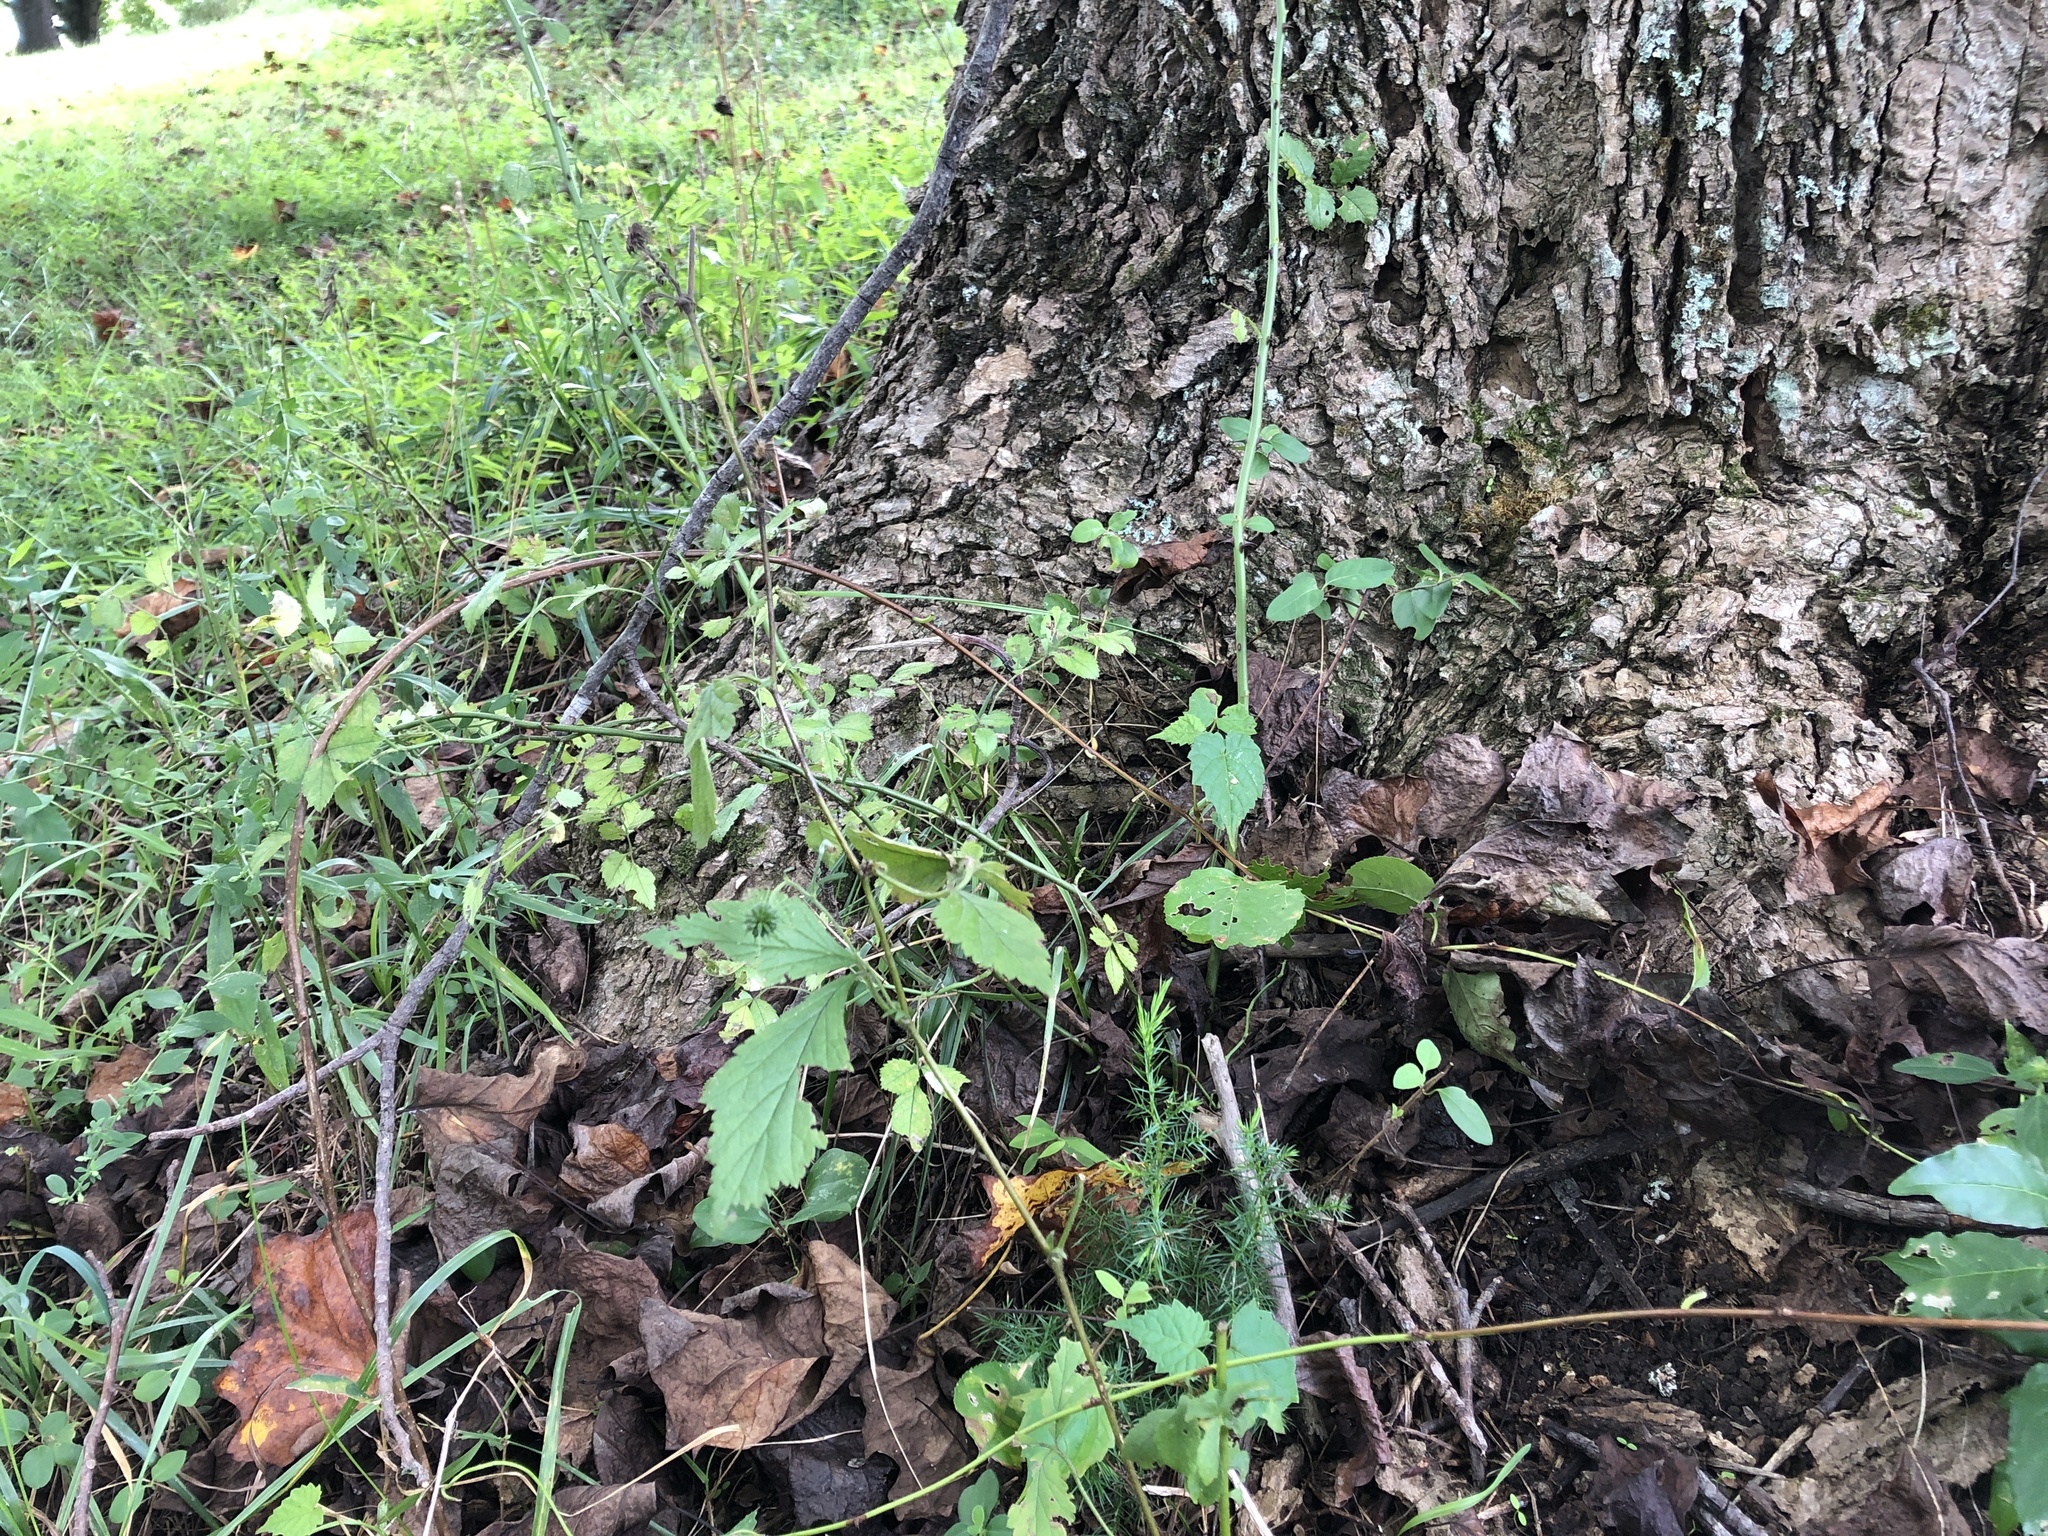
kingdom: Plantae
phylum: Tracheophyta
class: Pinopsida
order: Pinales
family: Cupressaceae
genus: Juniperus
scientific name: Juniperus virginiana
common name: Red juniper
